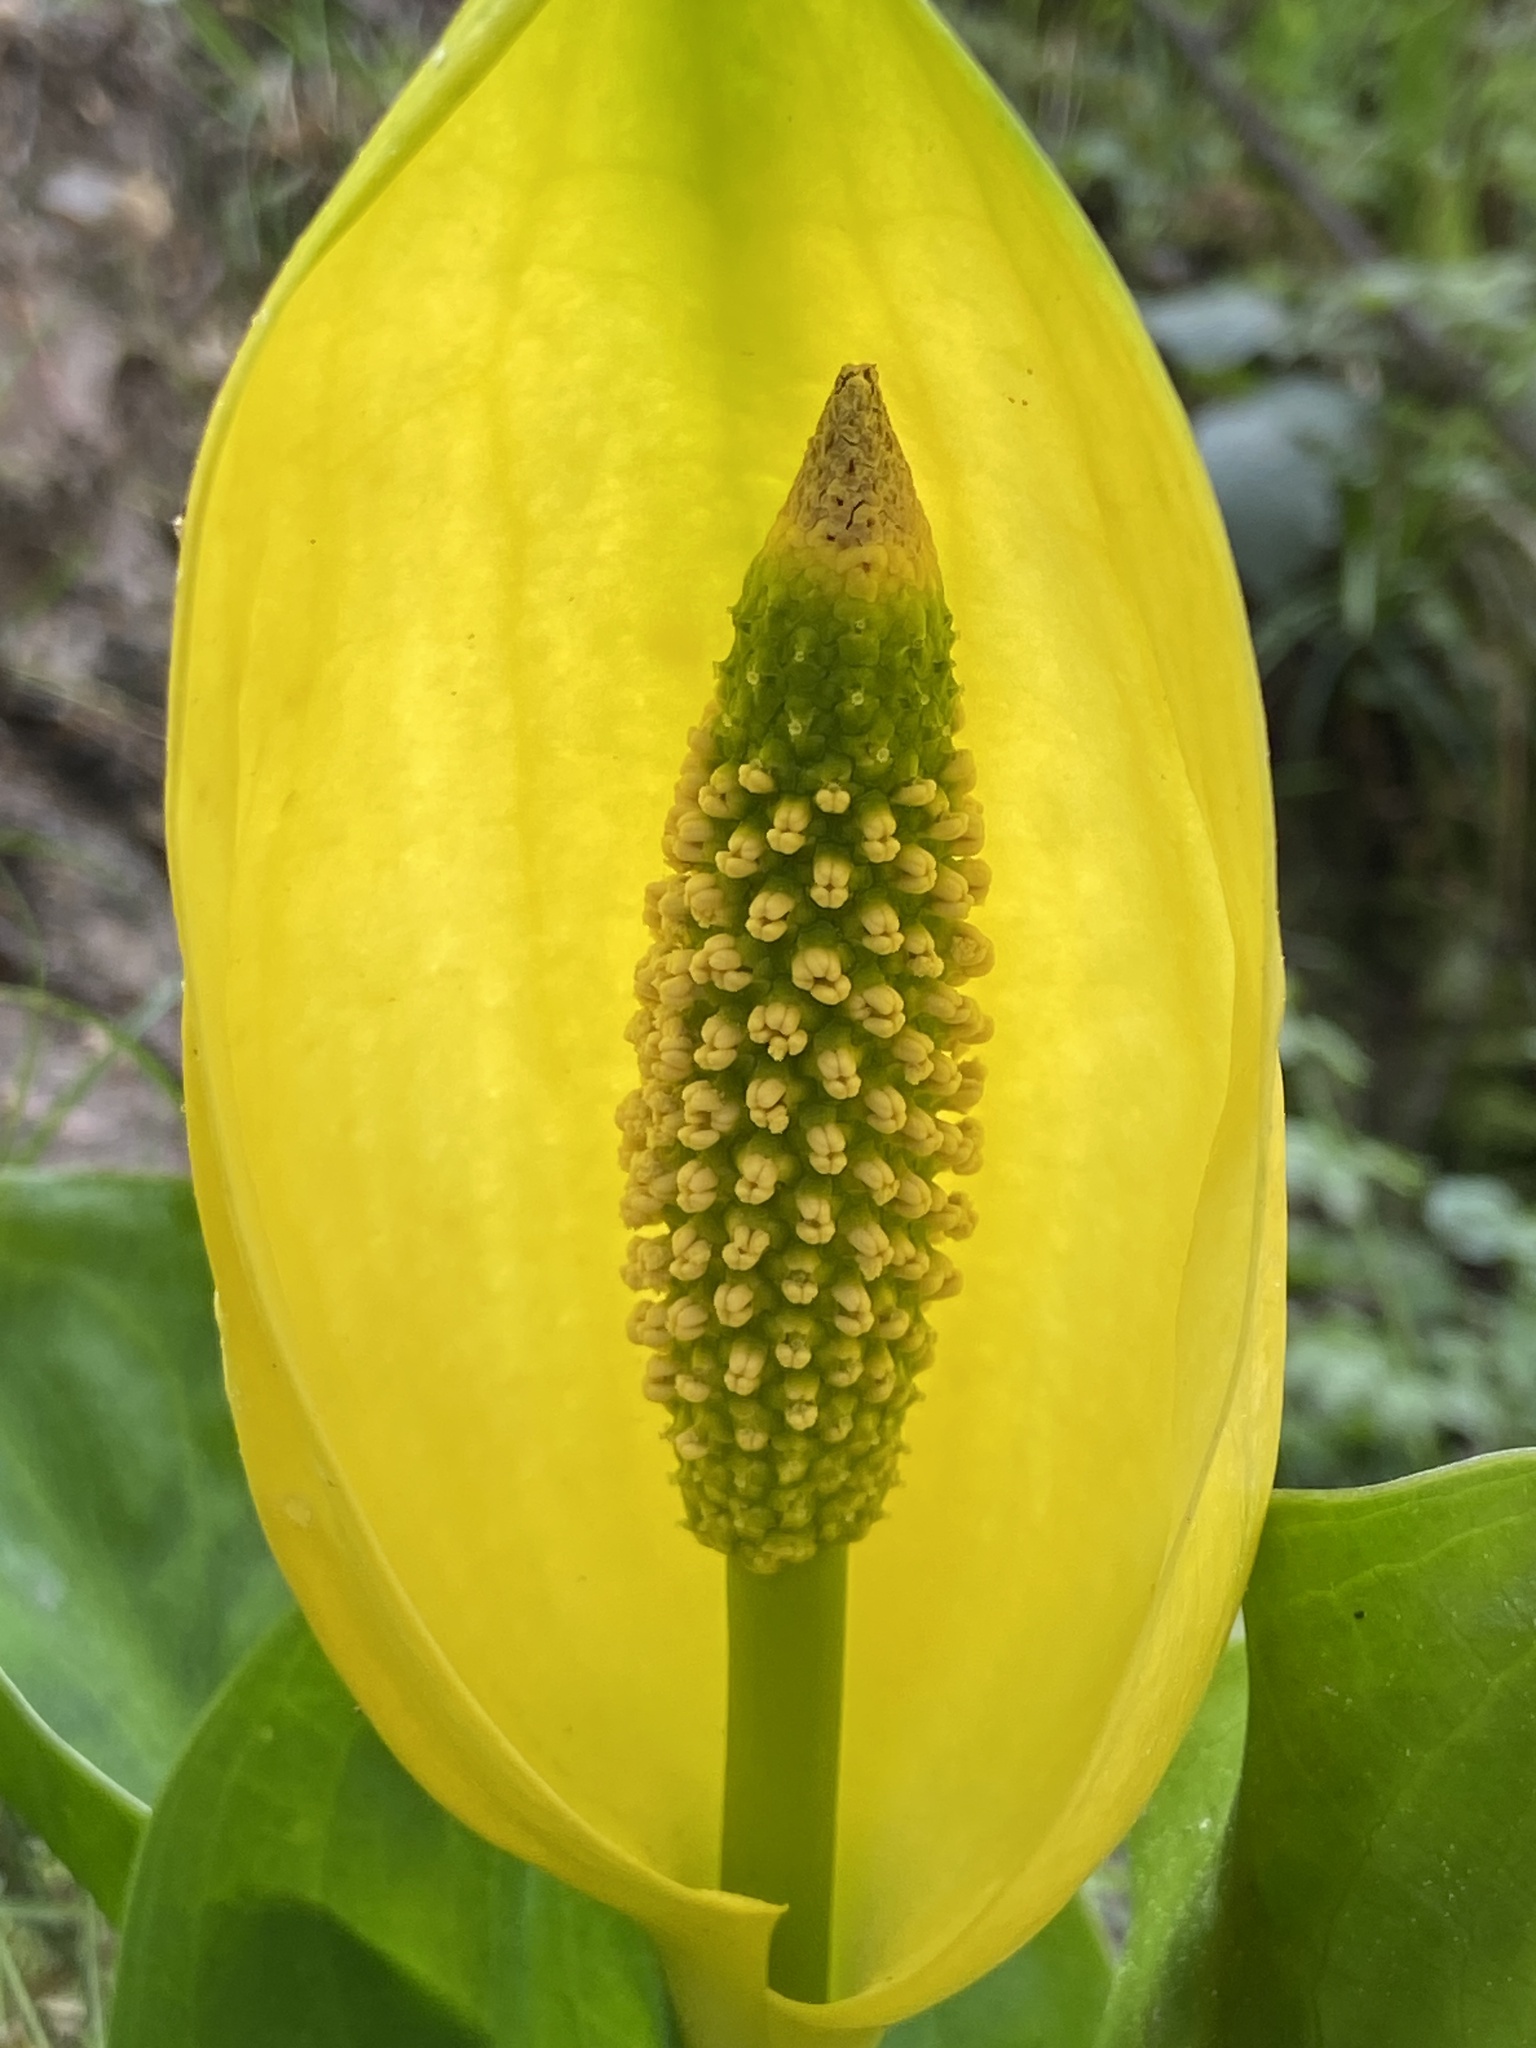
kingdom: Plantae
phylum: Tracheophyta
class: Liliopsida
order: Alismatales
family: Araceae
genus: Lysichiton
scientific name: Lysichiton americanus
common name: American skunk cabbage
